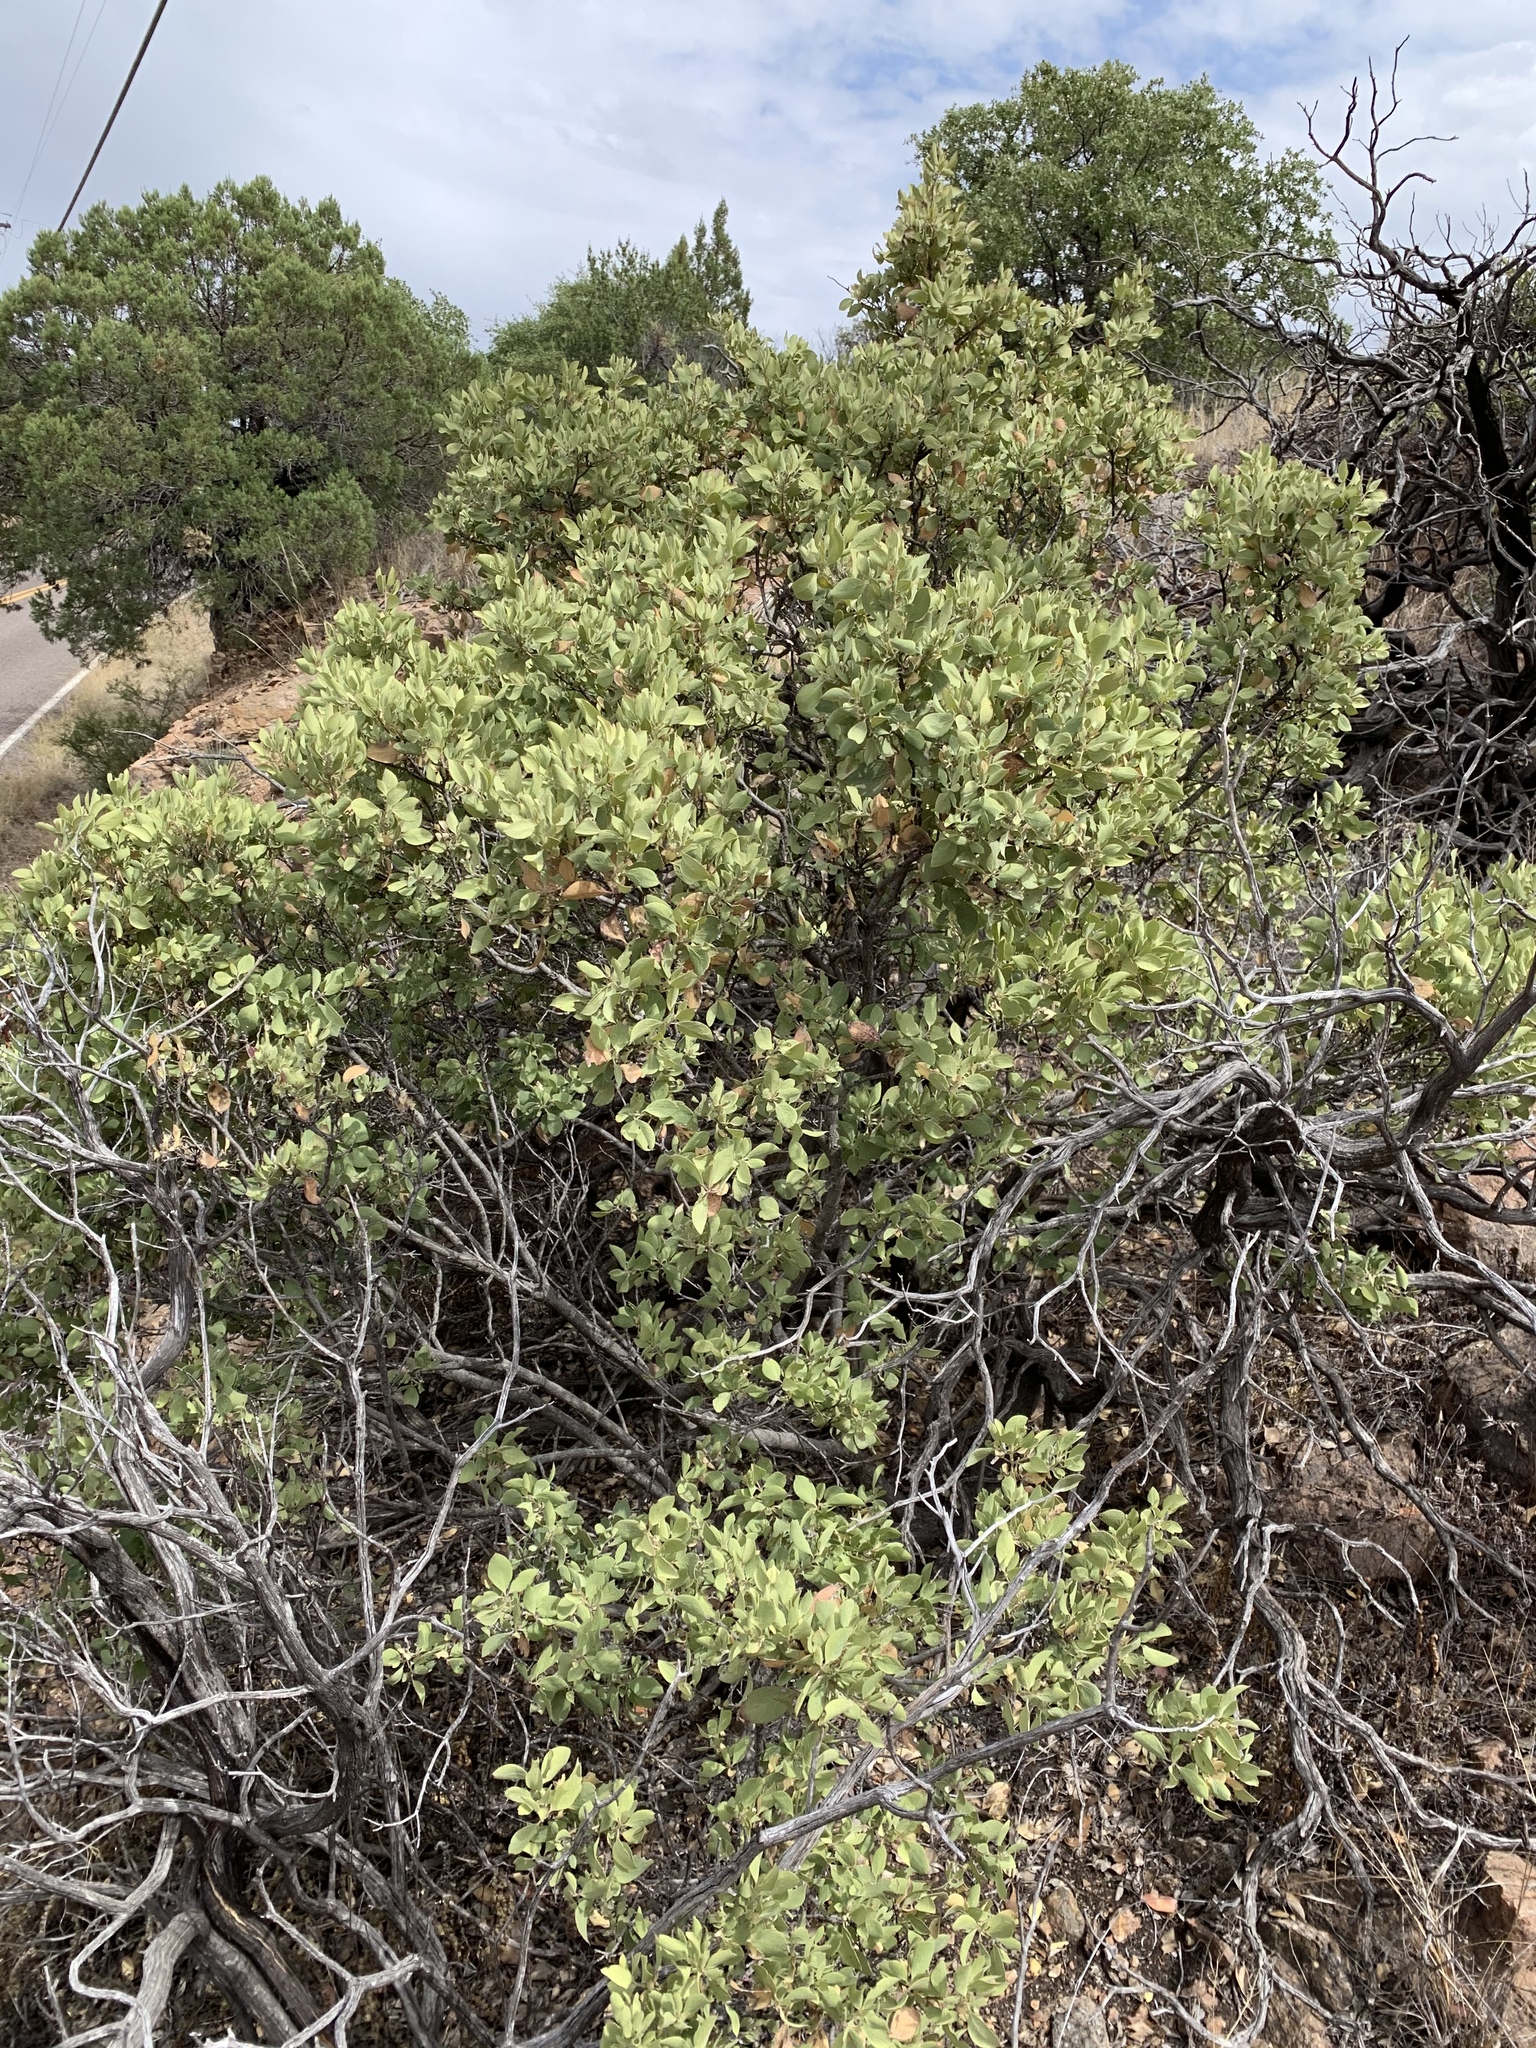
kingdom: Plantae
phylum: Tracheophyta
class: Magnoliopsida
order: Garryales
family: Garryaceae
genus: Garrya
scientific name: Garrya wrightii
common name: Wright's silktassel
